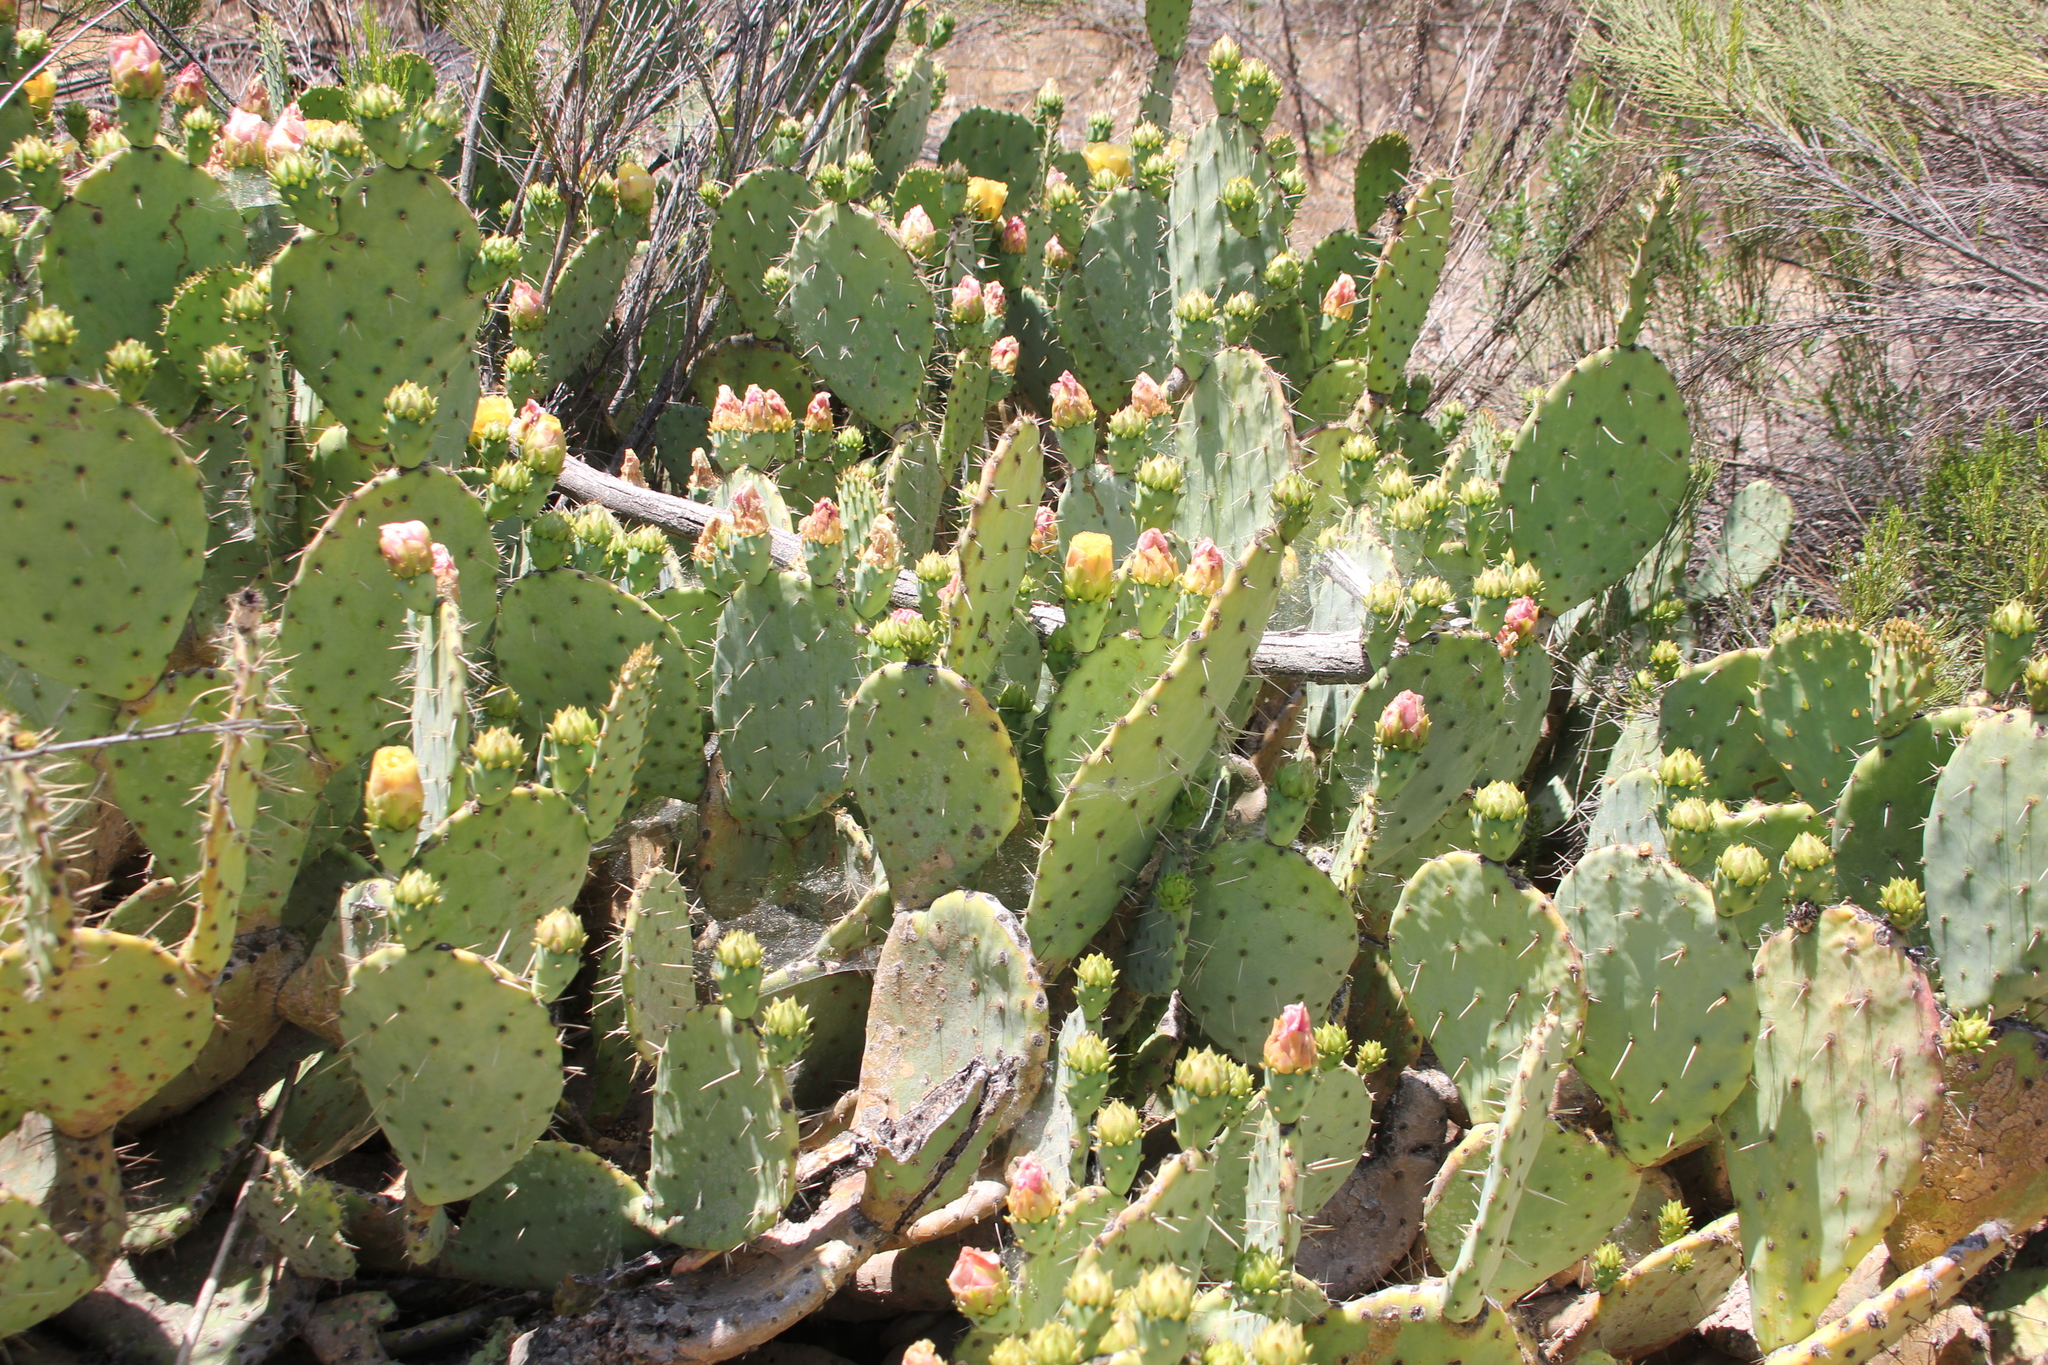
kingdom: Plantae
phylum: Tracheophyta
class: Magnoliopsida
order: Caryophyllales
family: Cactaceae
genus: Opuntia
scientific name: Opuntia vaseyi
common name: Apricot prickly-pear
